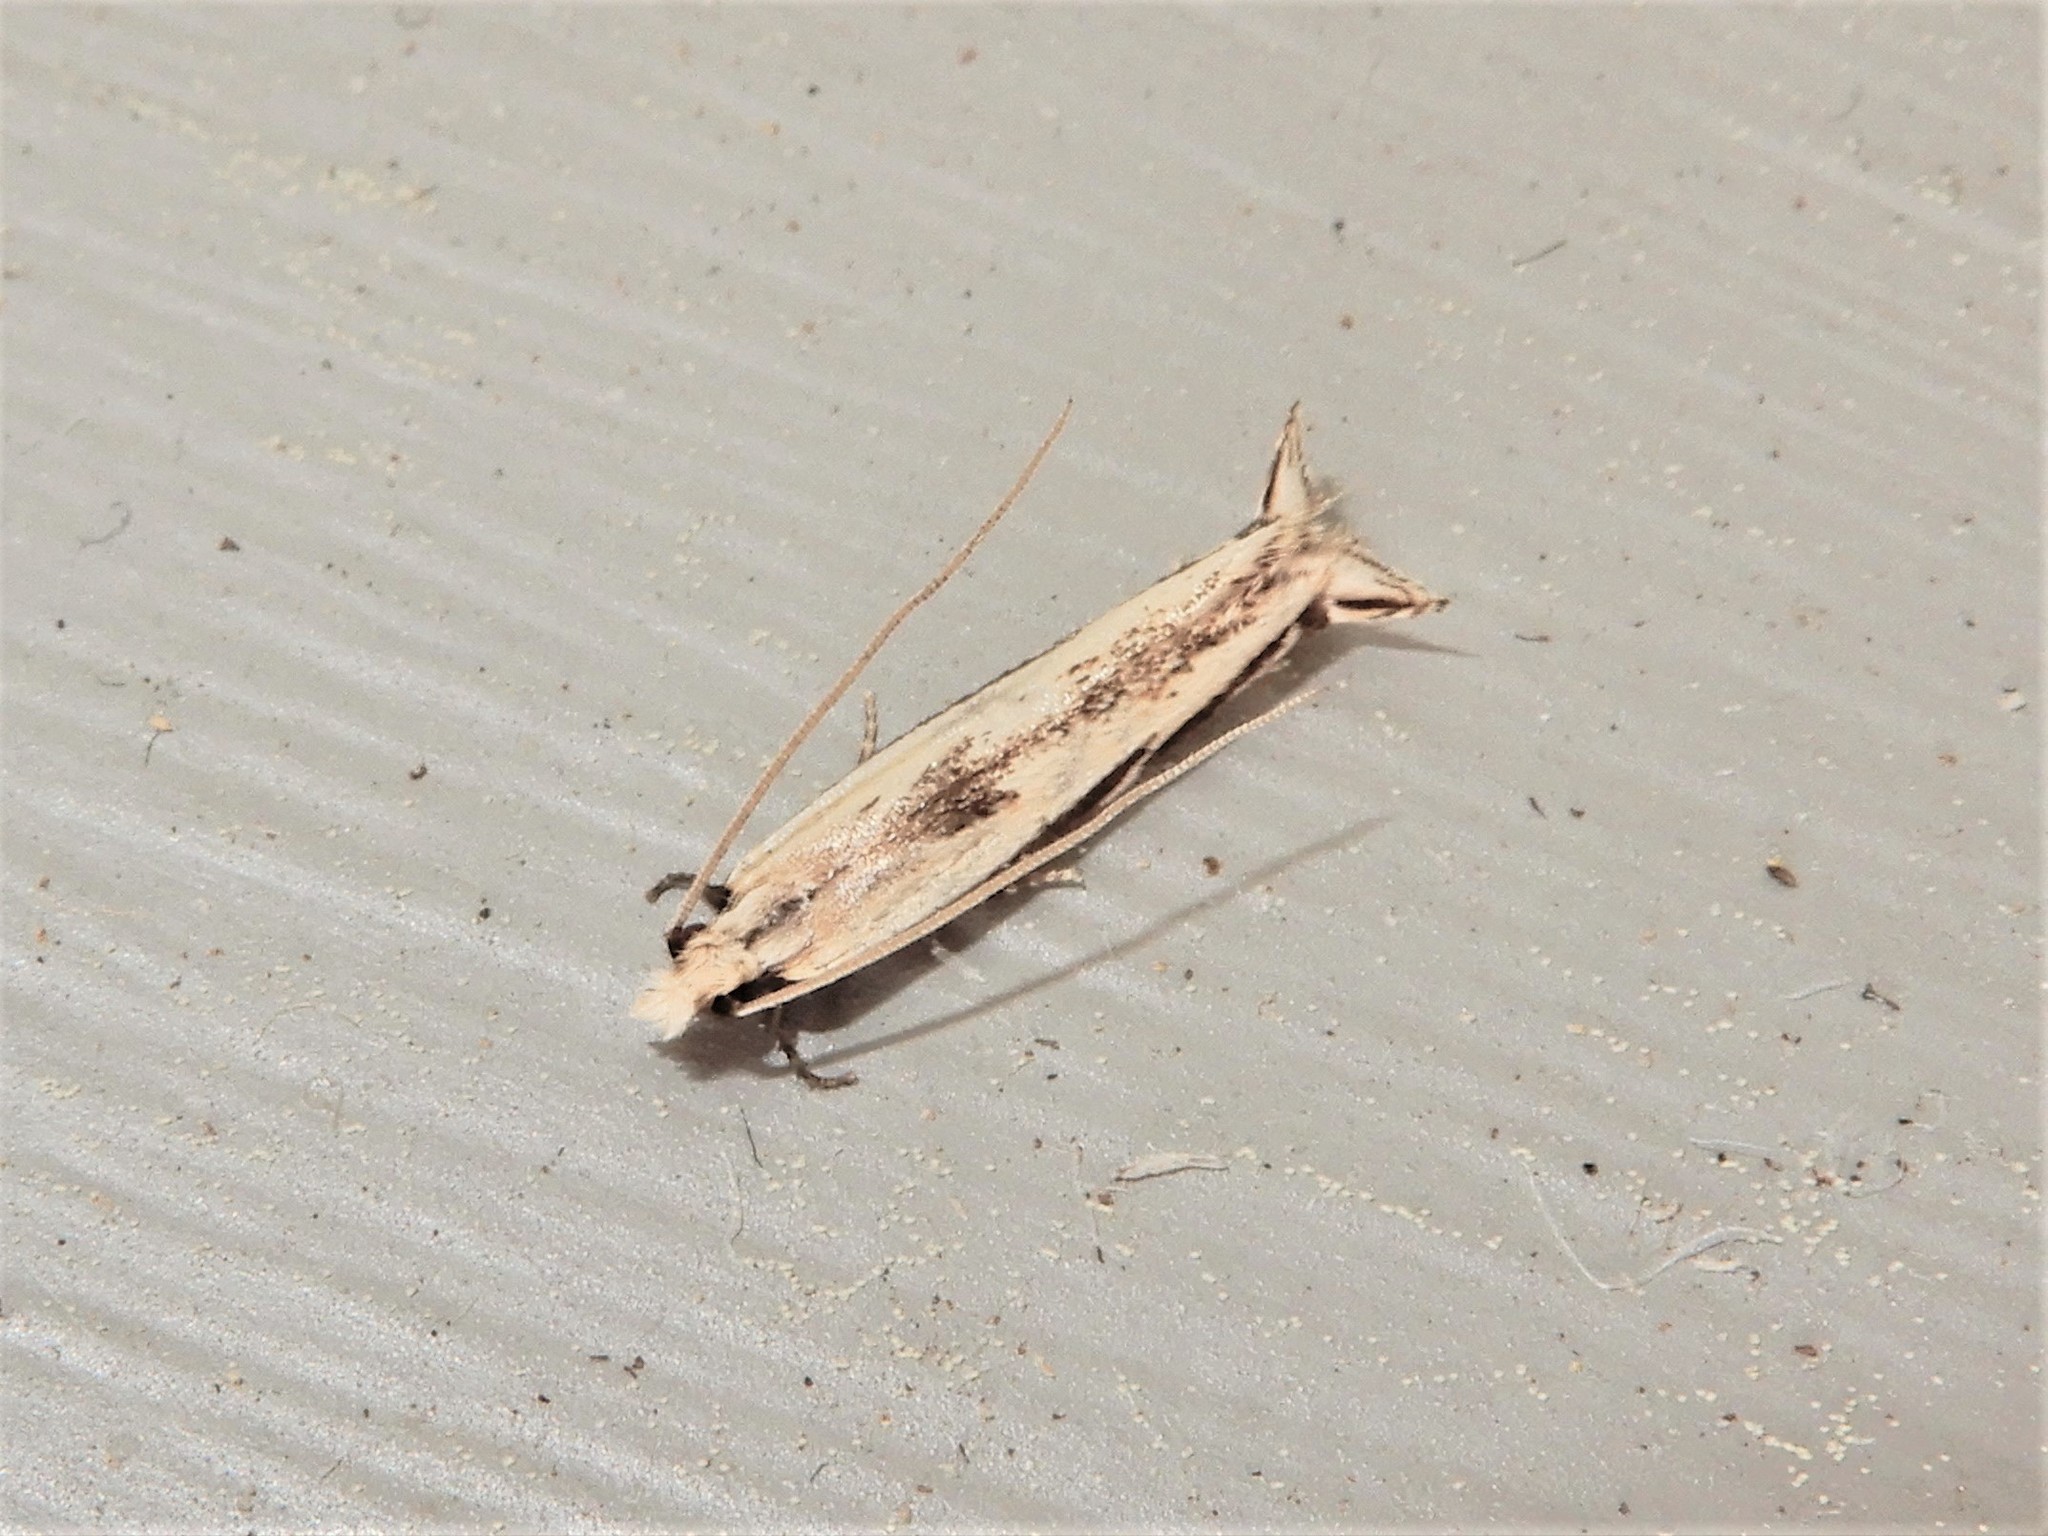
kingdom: Animalia
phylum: Arthropoda
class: Insecta
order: Lepidoptera
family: Tineidae
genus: Erechthias
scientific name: Erechthias terminella
